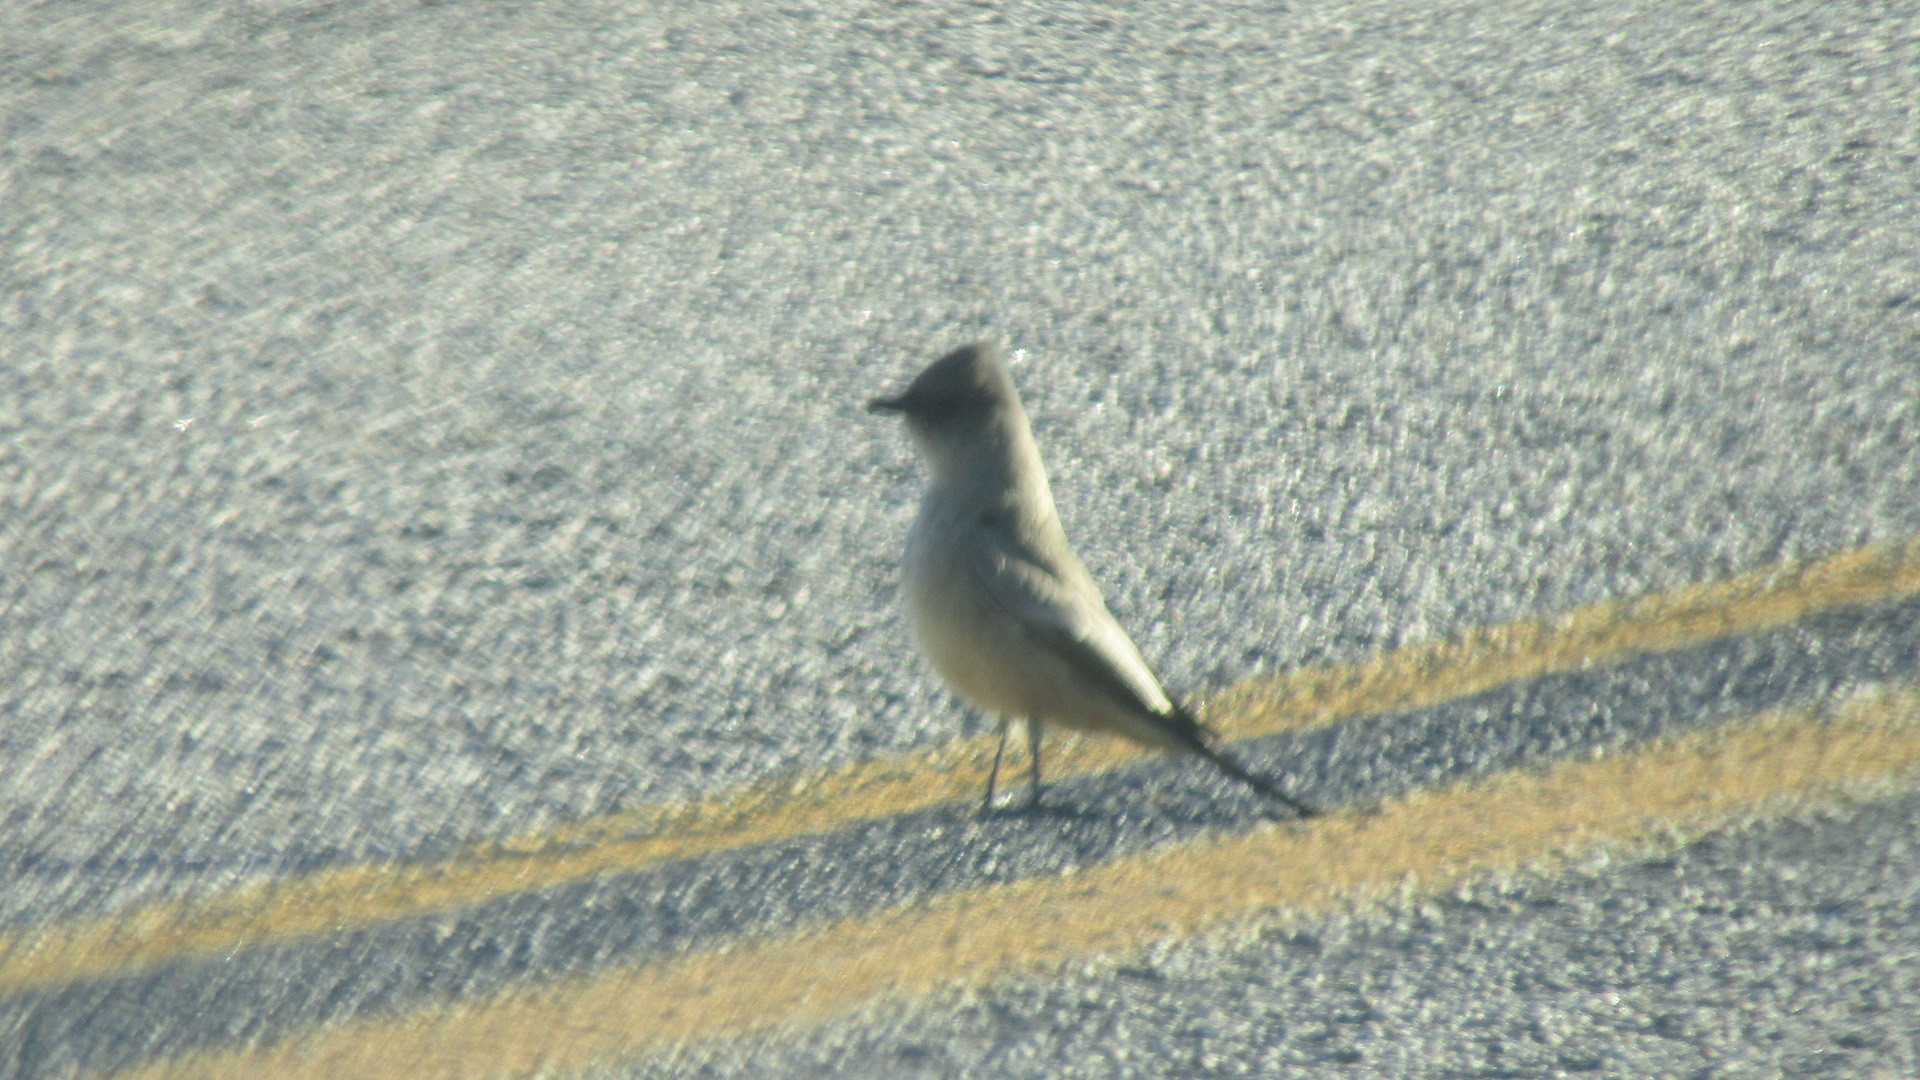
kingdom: Animalia
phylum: Chordata
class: Aves
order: Passeriformes
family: Tyrannidae
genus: Sayornis
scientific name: Sayornis saya
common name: Say's phoebe
